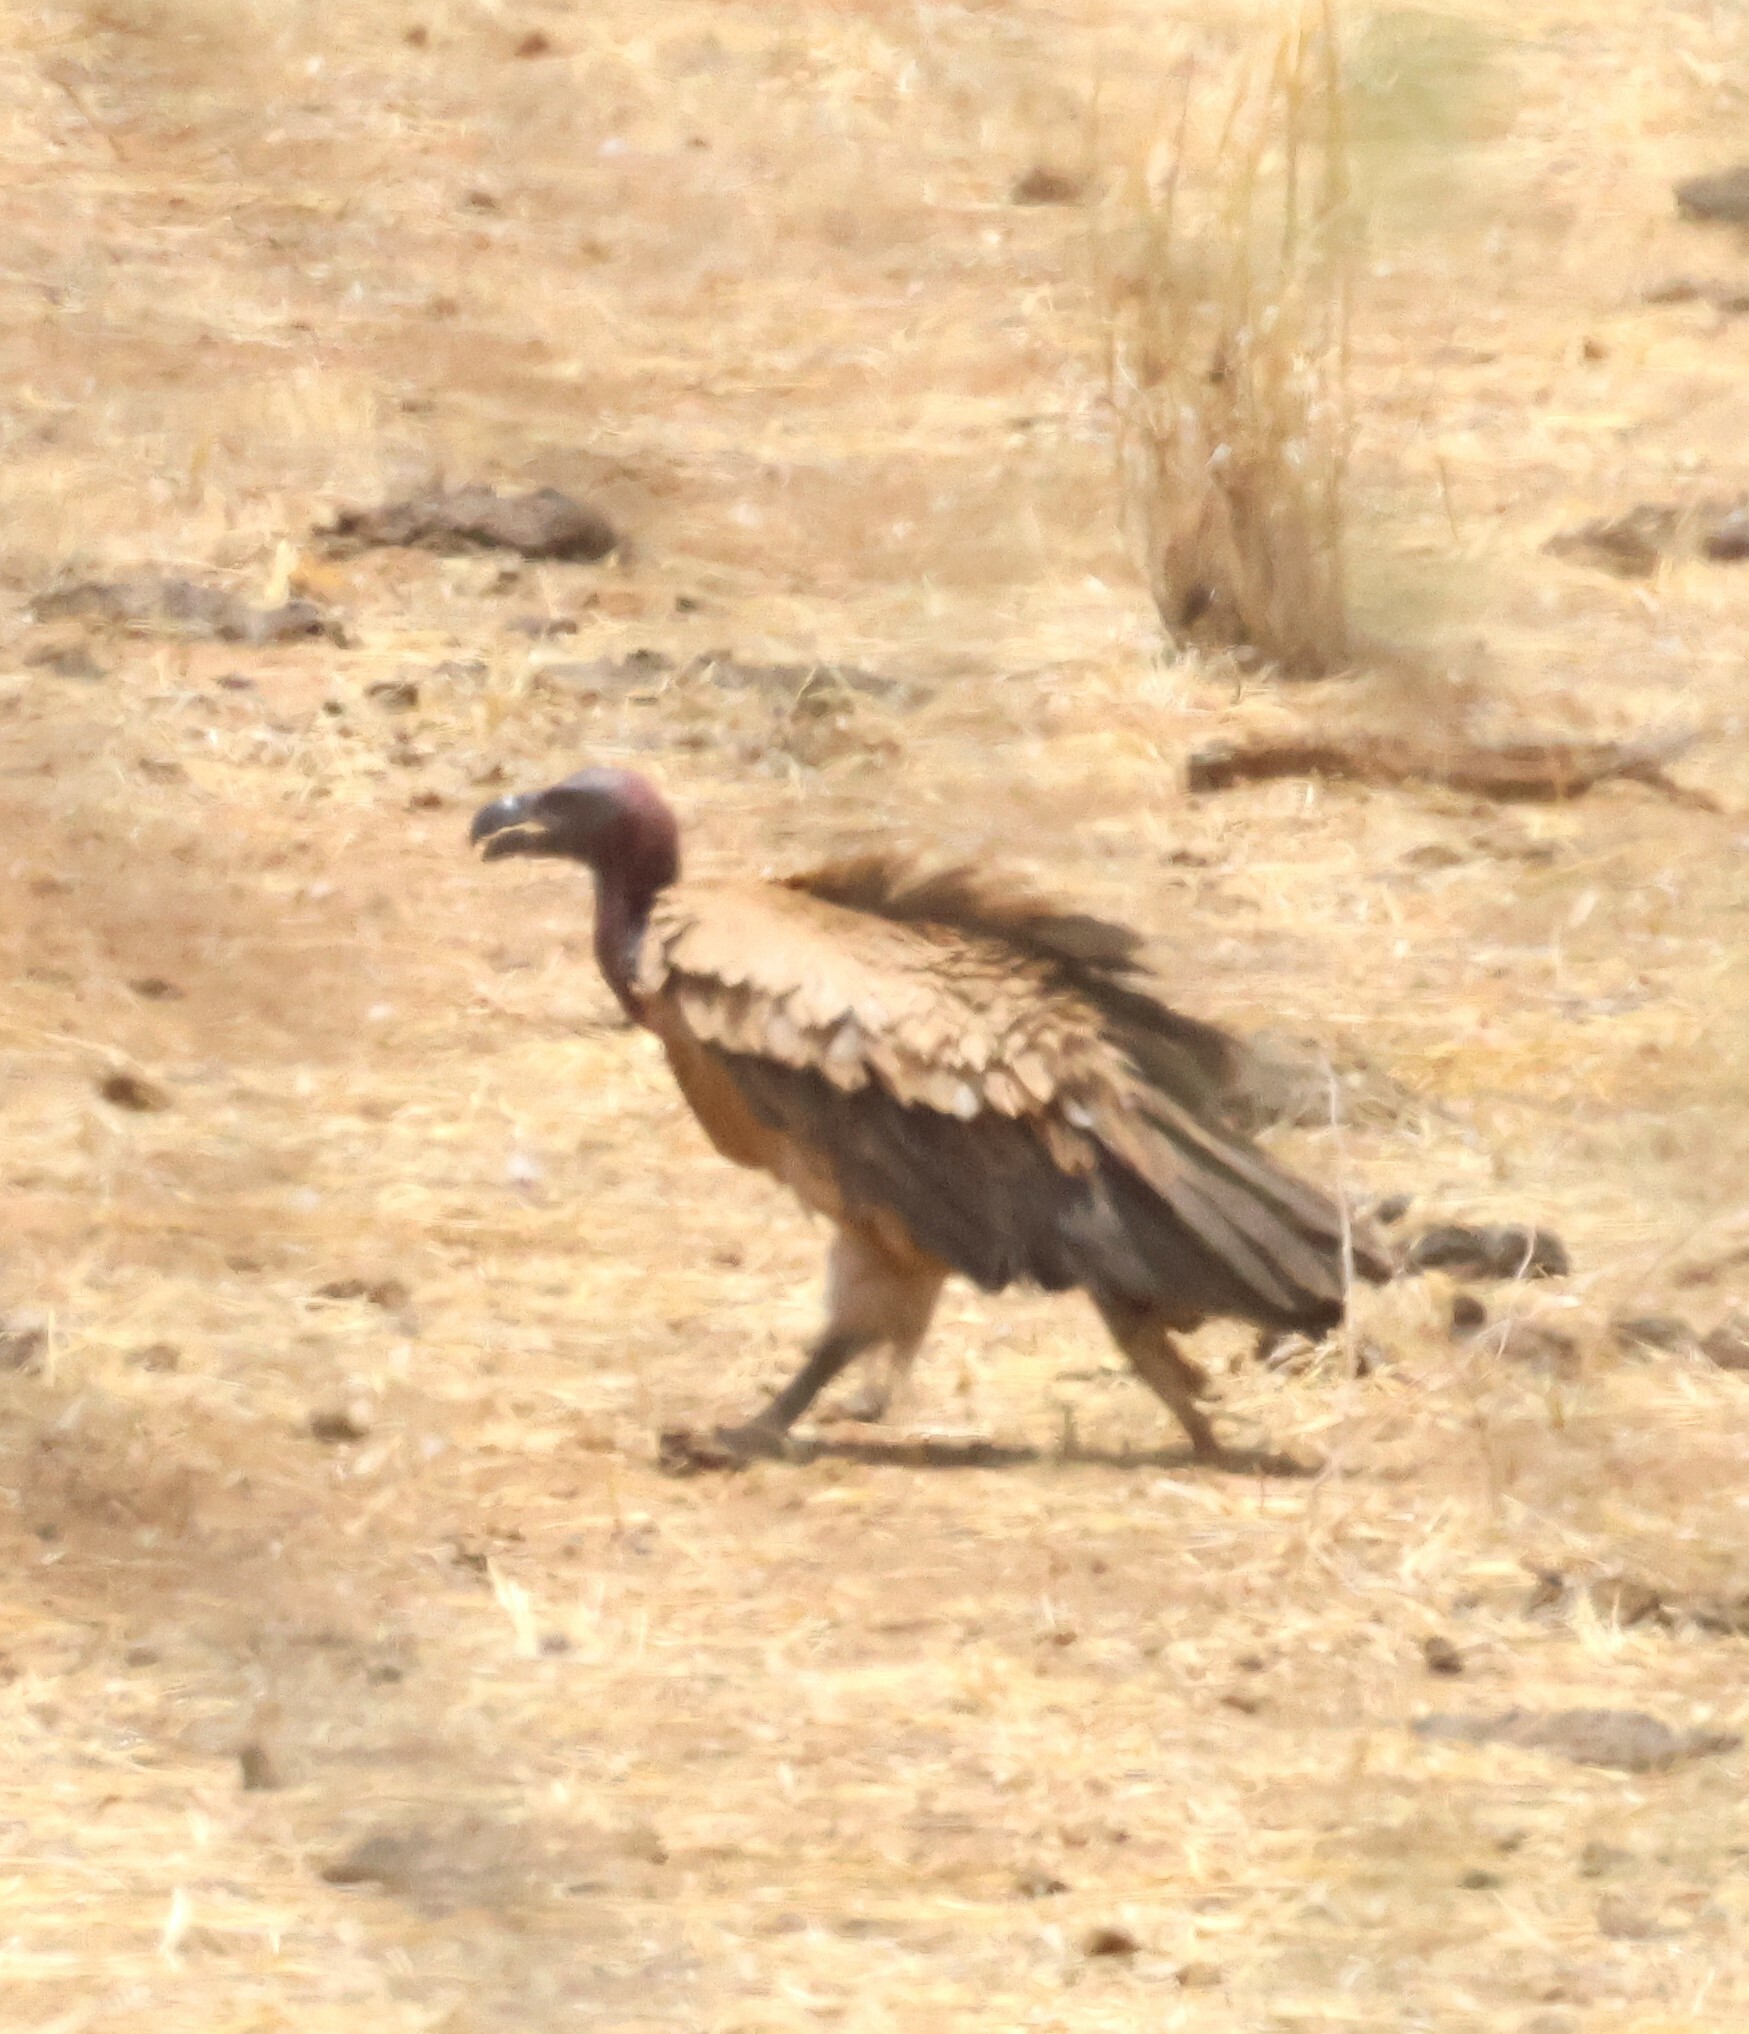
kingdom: Animalia
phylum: Chordata
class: Aves
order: Accipitriformes
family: Accipitridae
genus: Torgos
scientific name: Torgos tracheliotos
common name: Lappet-faced vulture
